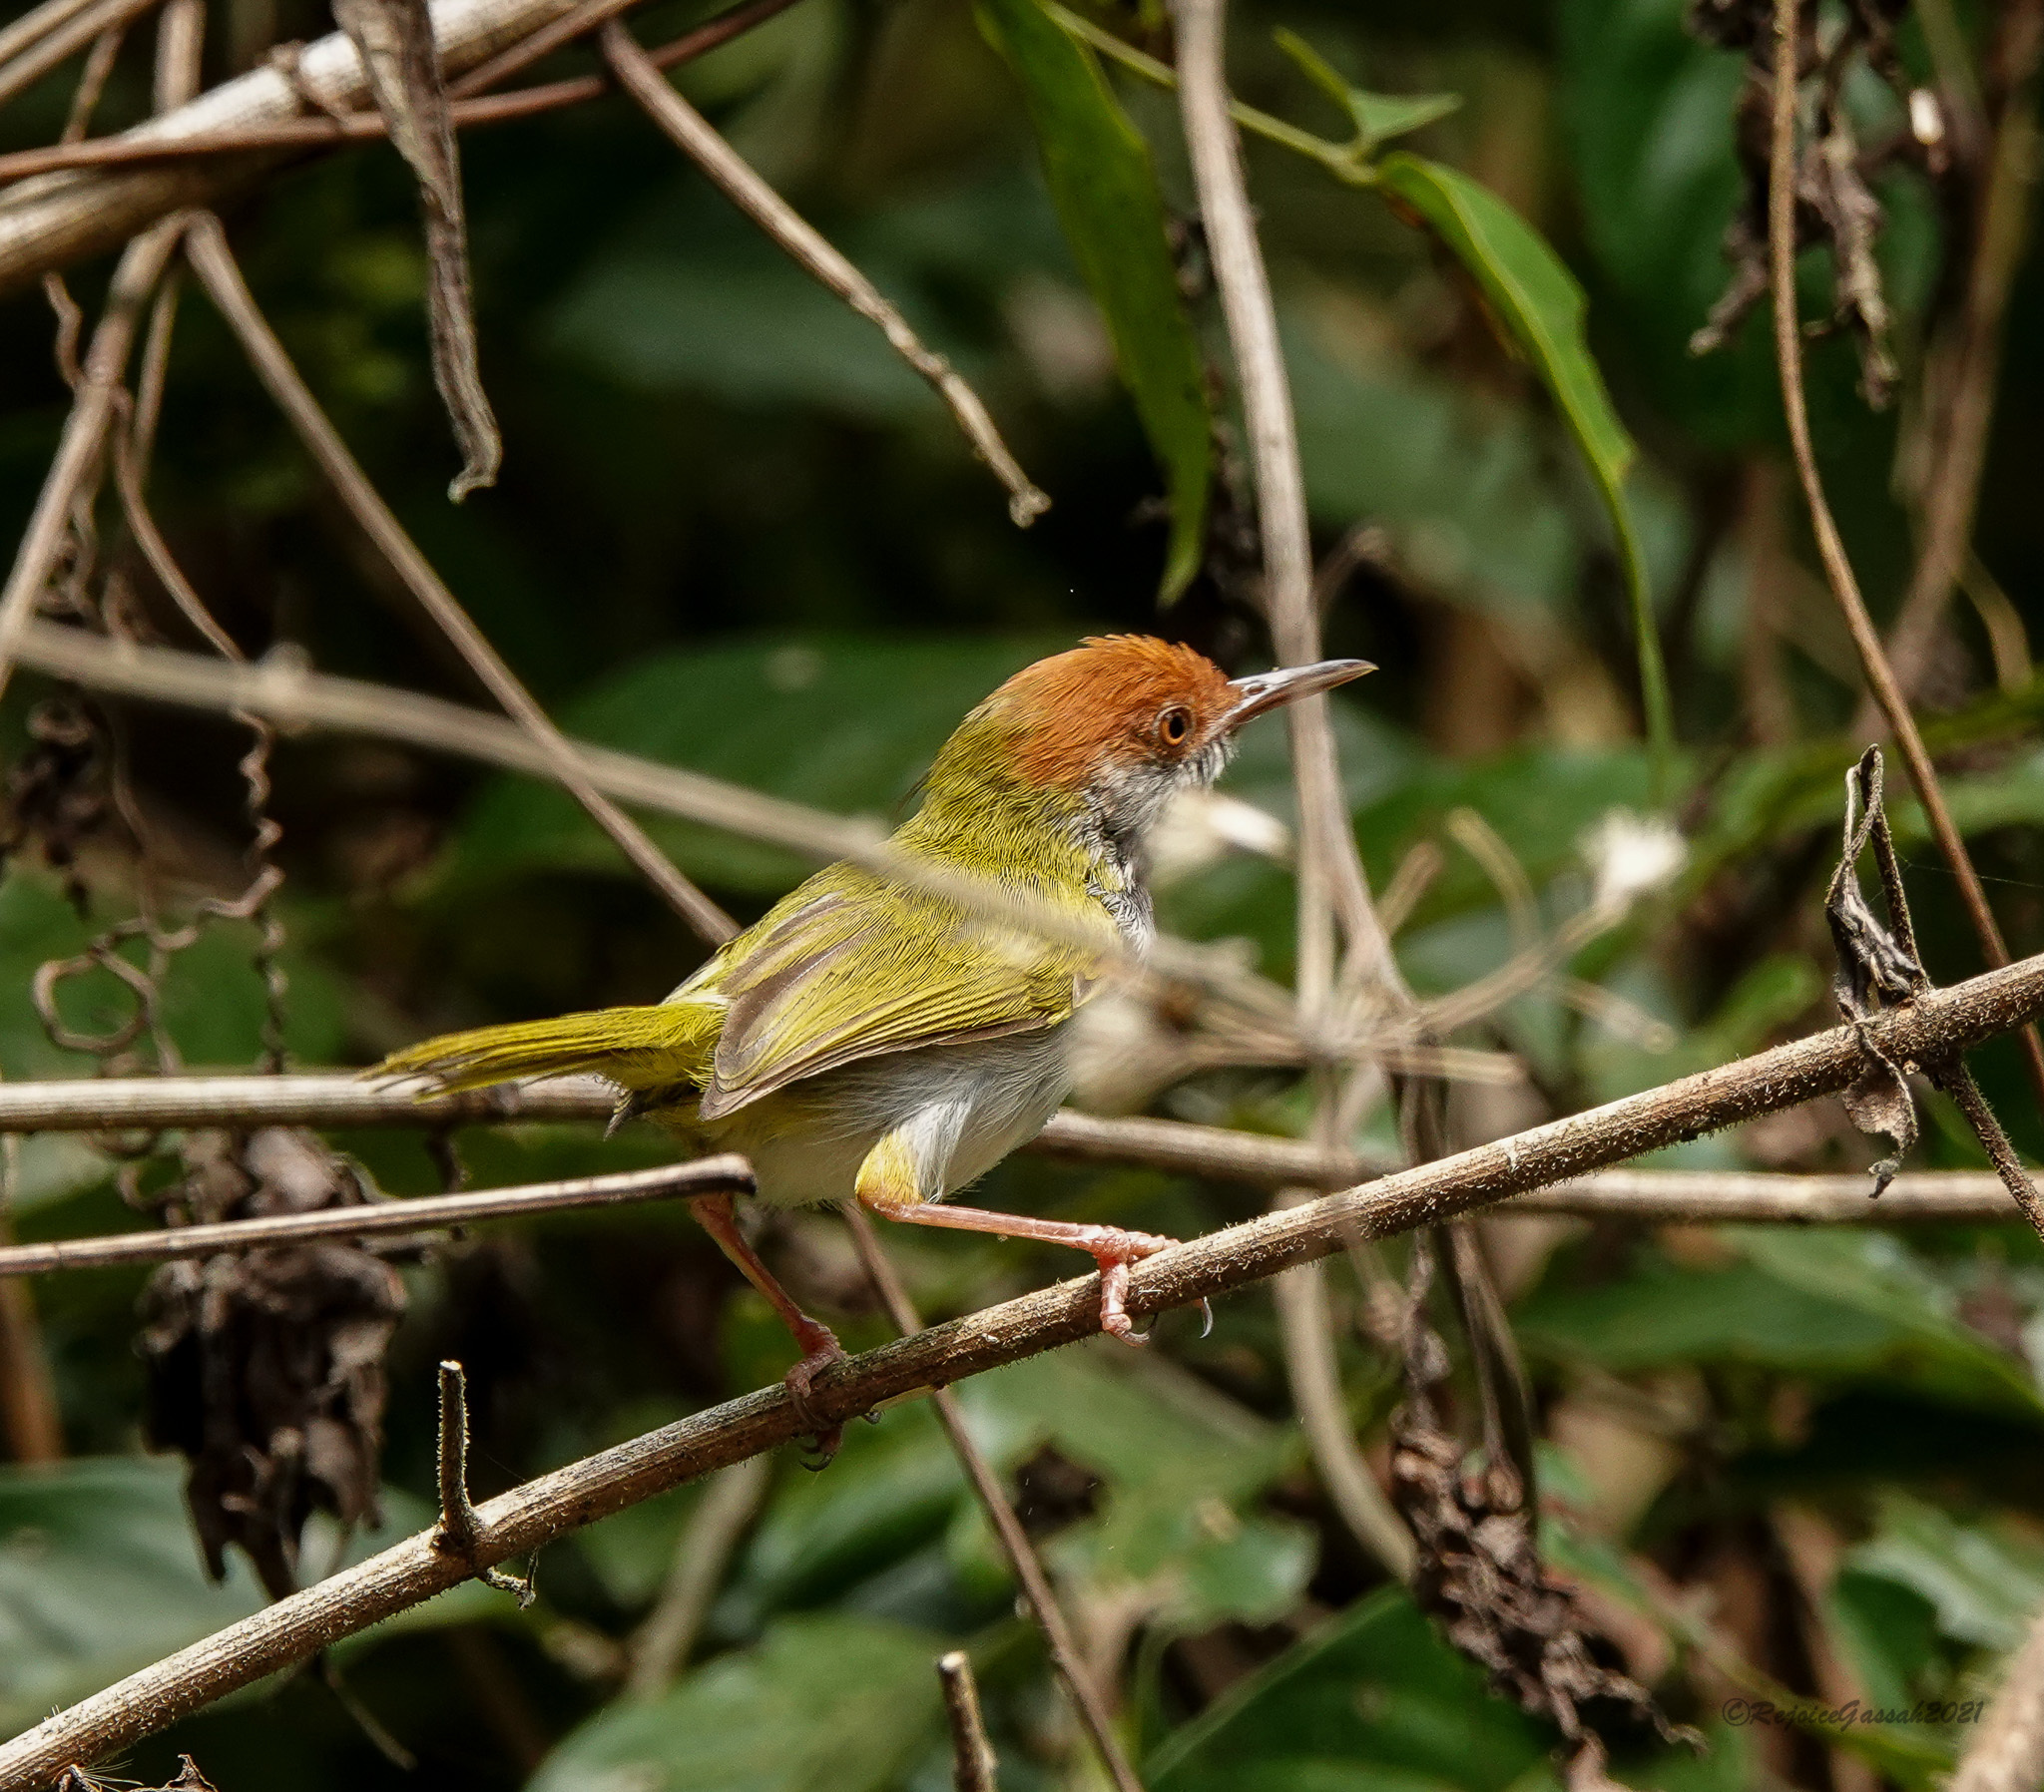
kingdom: Animalia
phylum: Chordata
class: Aves
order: Passeriformes
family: Cisticolidae
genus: Orthotomus
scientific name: Orthotomus atrogularis
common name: Dark-necked tailorbird
